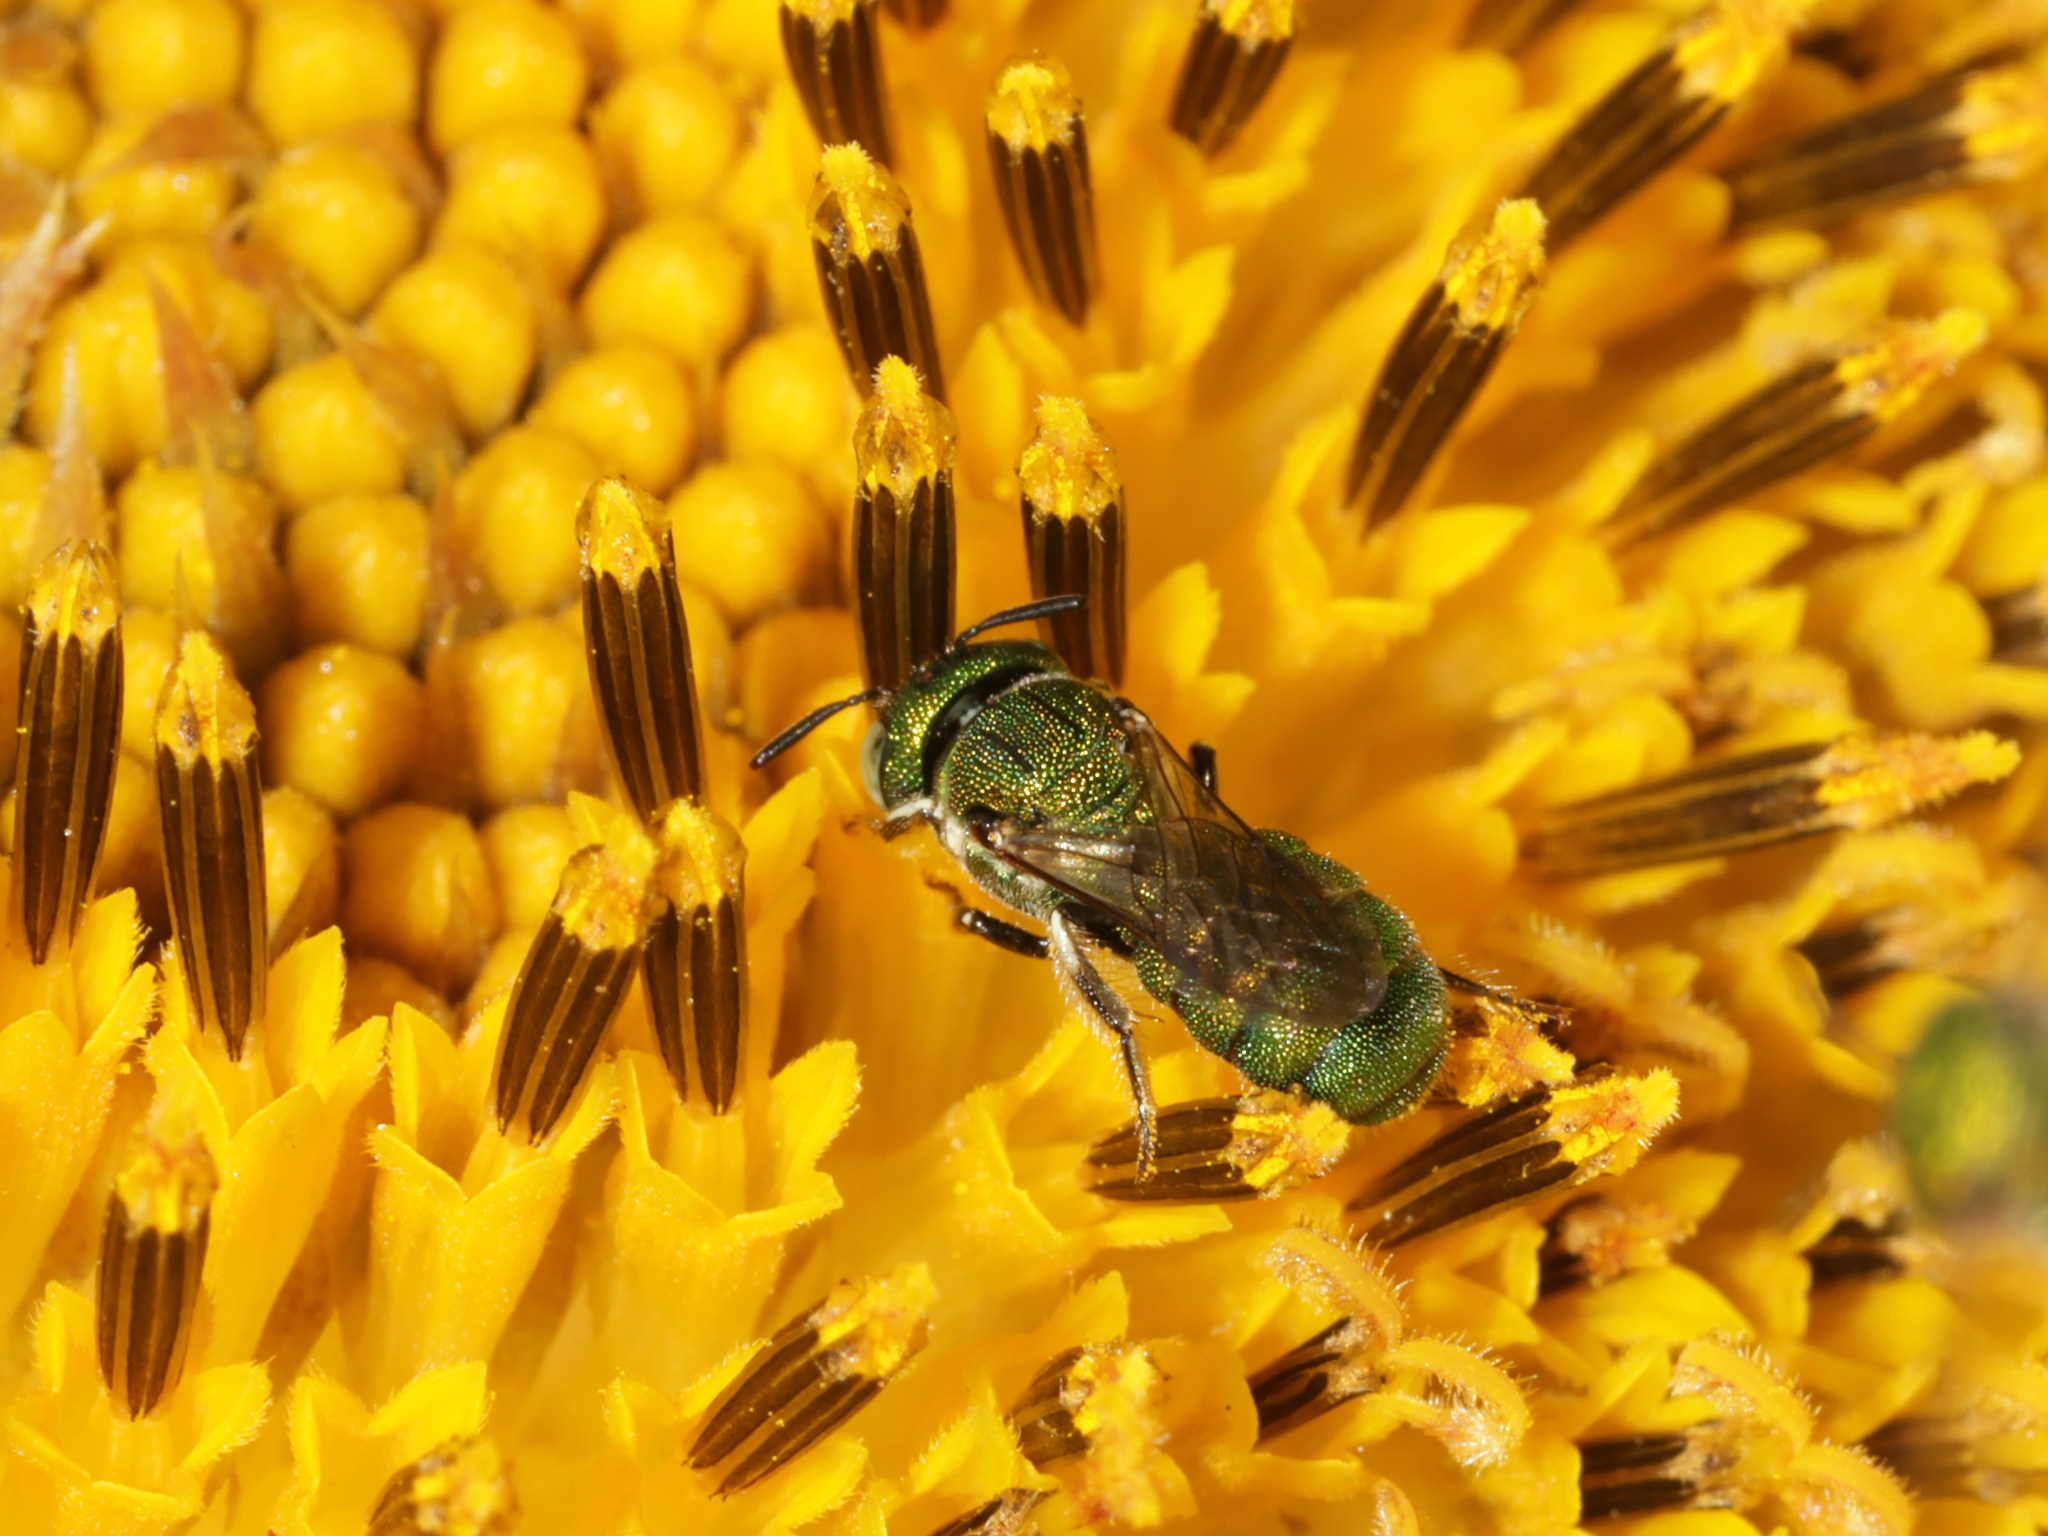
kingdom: Animalia
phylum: Arthropoda
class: Insecta
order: Hymenoptera
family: Apidae
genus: Ceratina
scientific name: Ceratina smaragdula
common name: Small carpenter bee
